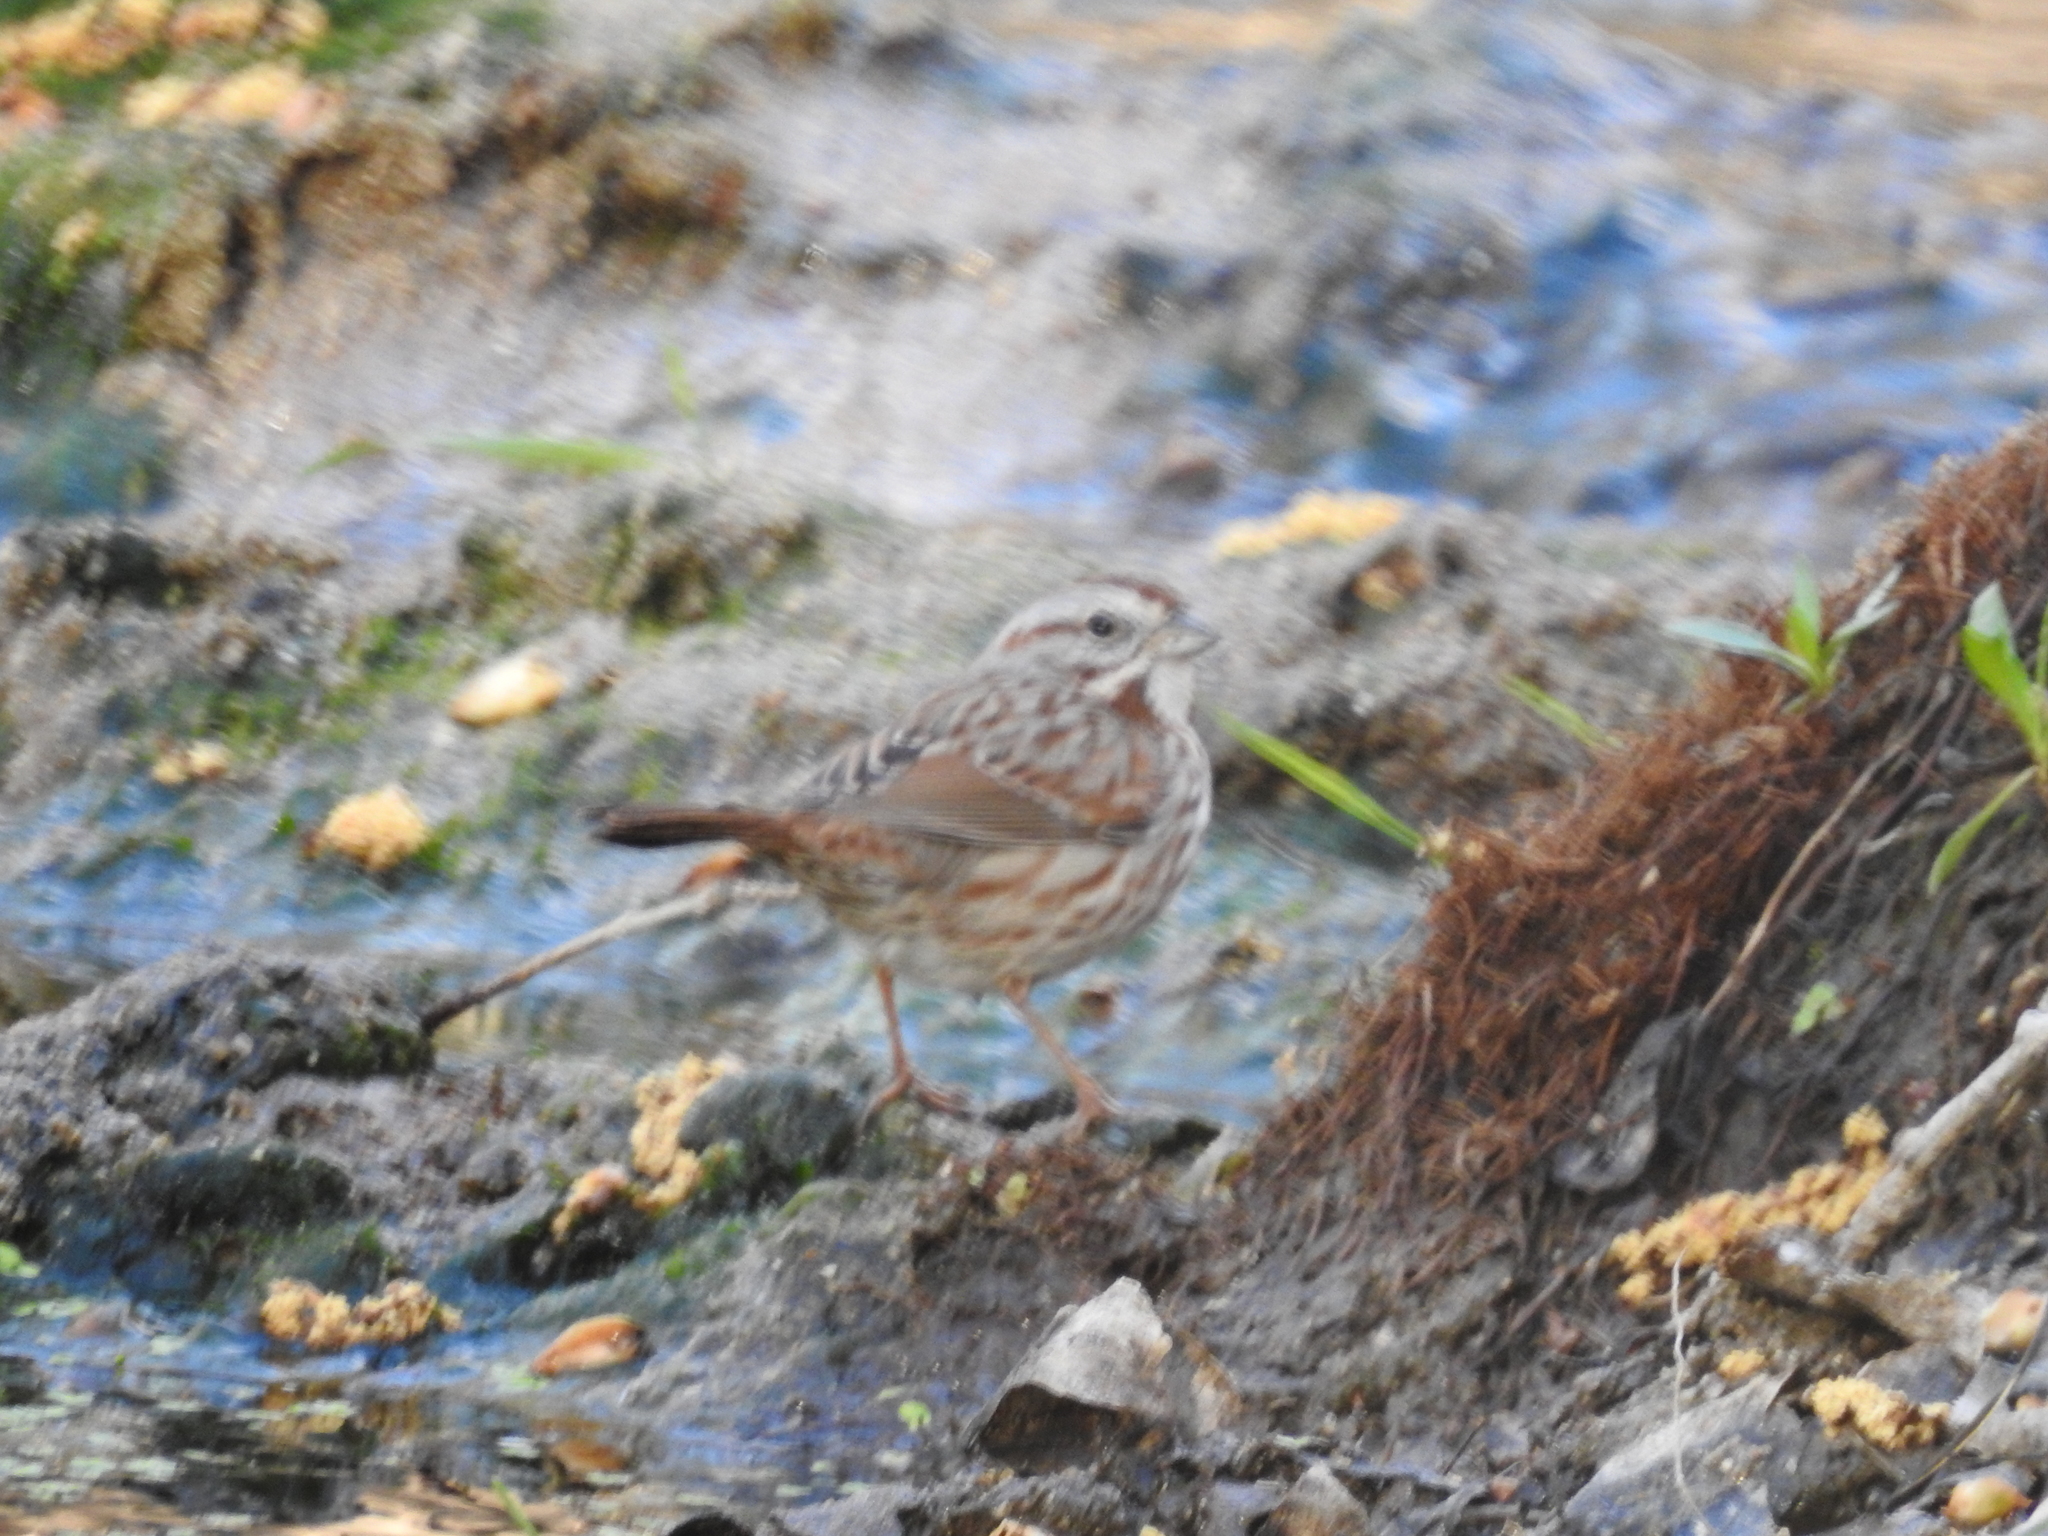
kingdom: Animalia
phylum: Chordata
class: Aves
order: Passeriformes
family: Passerellidae
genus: Melospiza
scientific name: Melospiza melodia
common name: Song sparrow
